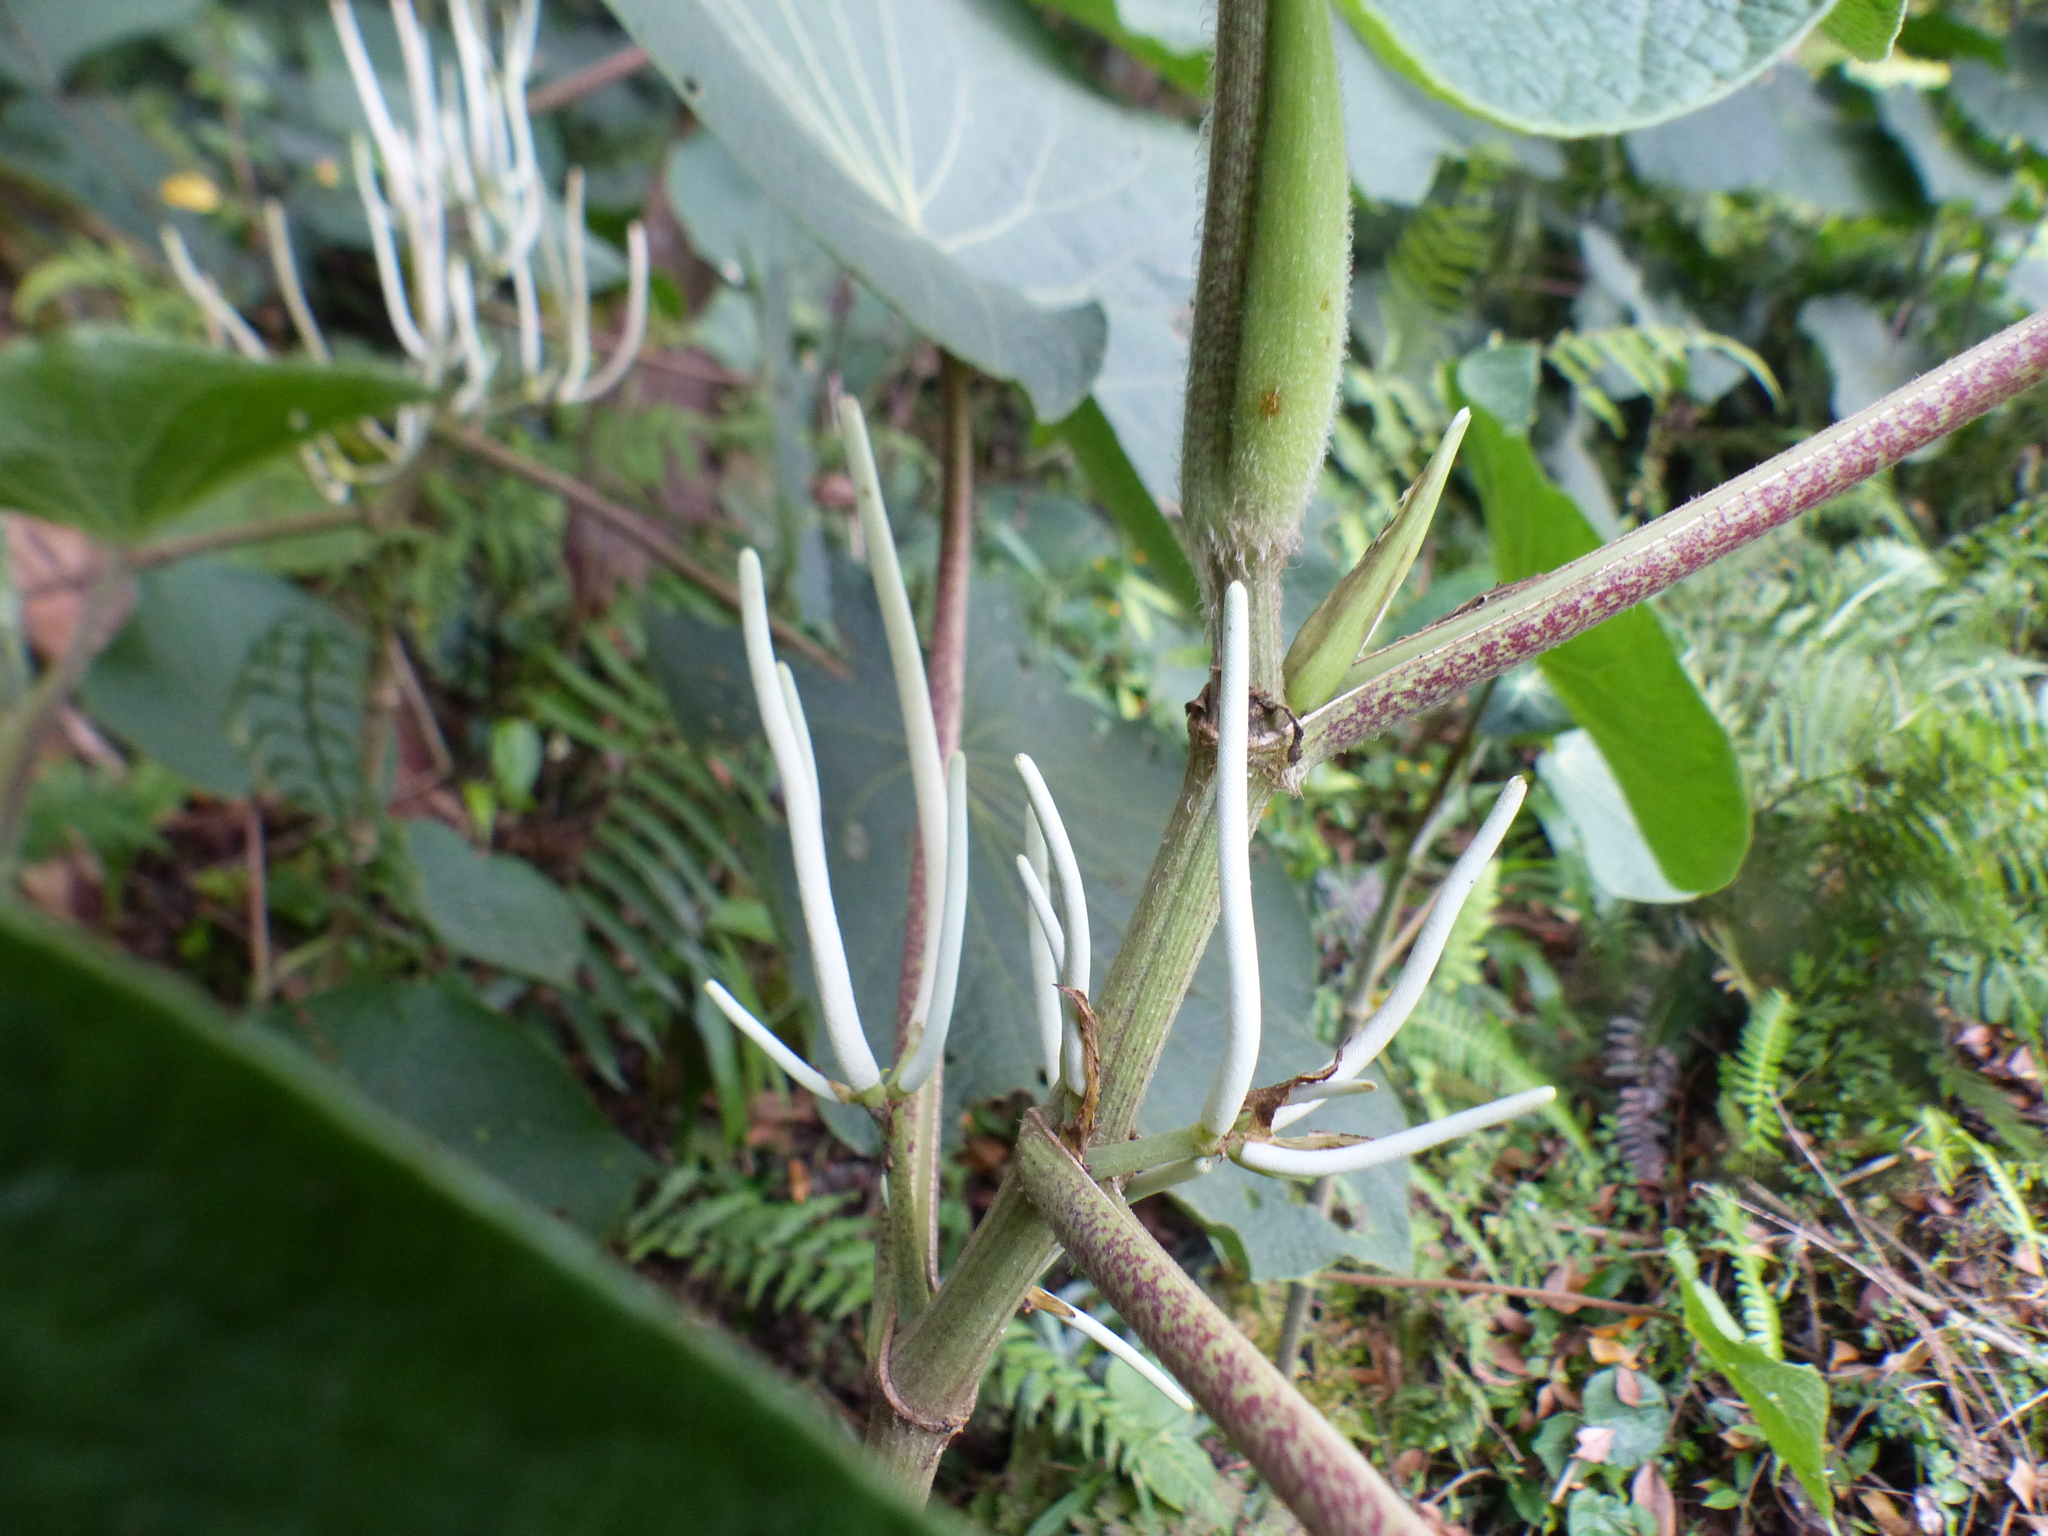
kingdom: Plantae
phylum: Tracheophyta
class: Magnoliopsida
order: Piperales
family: Piperaceae
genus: Piper
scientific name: Piper umbellatum
